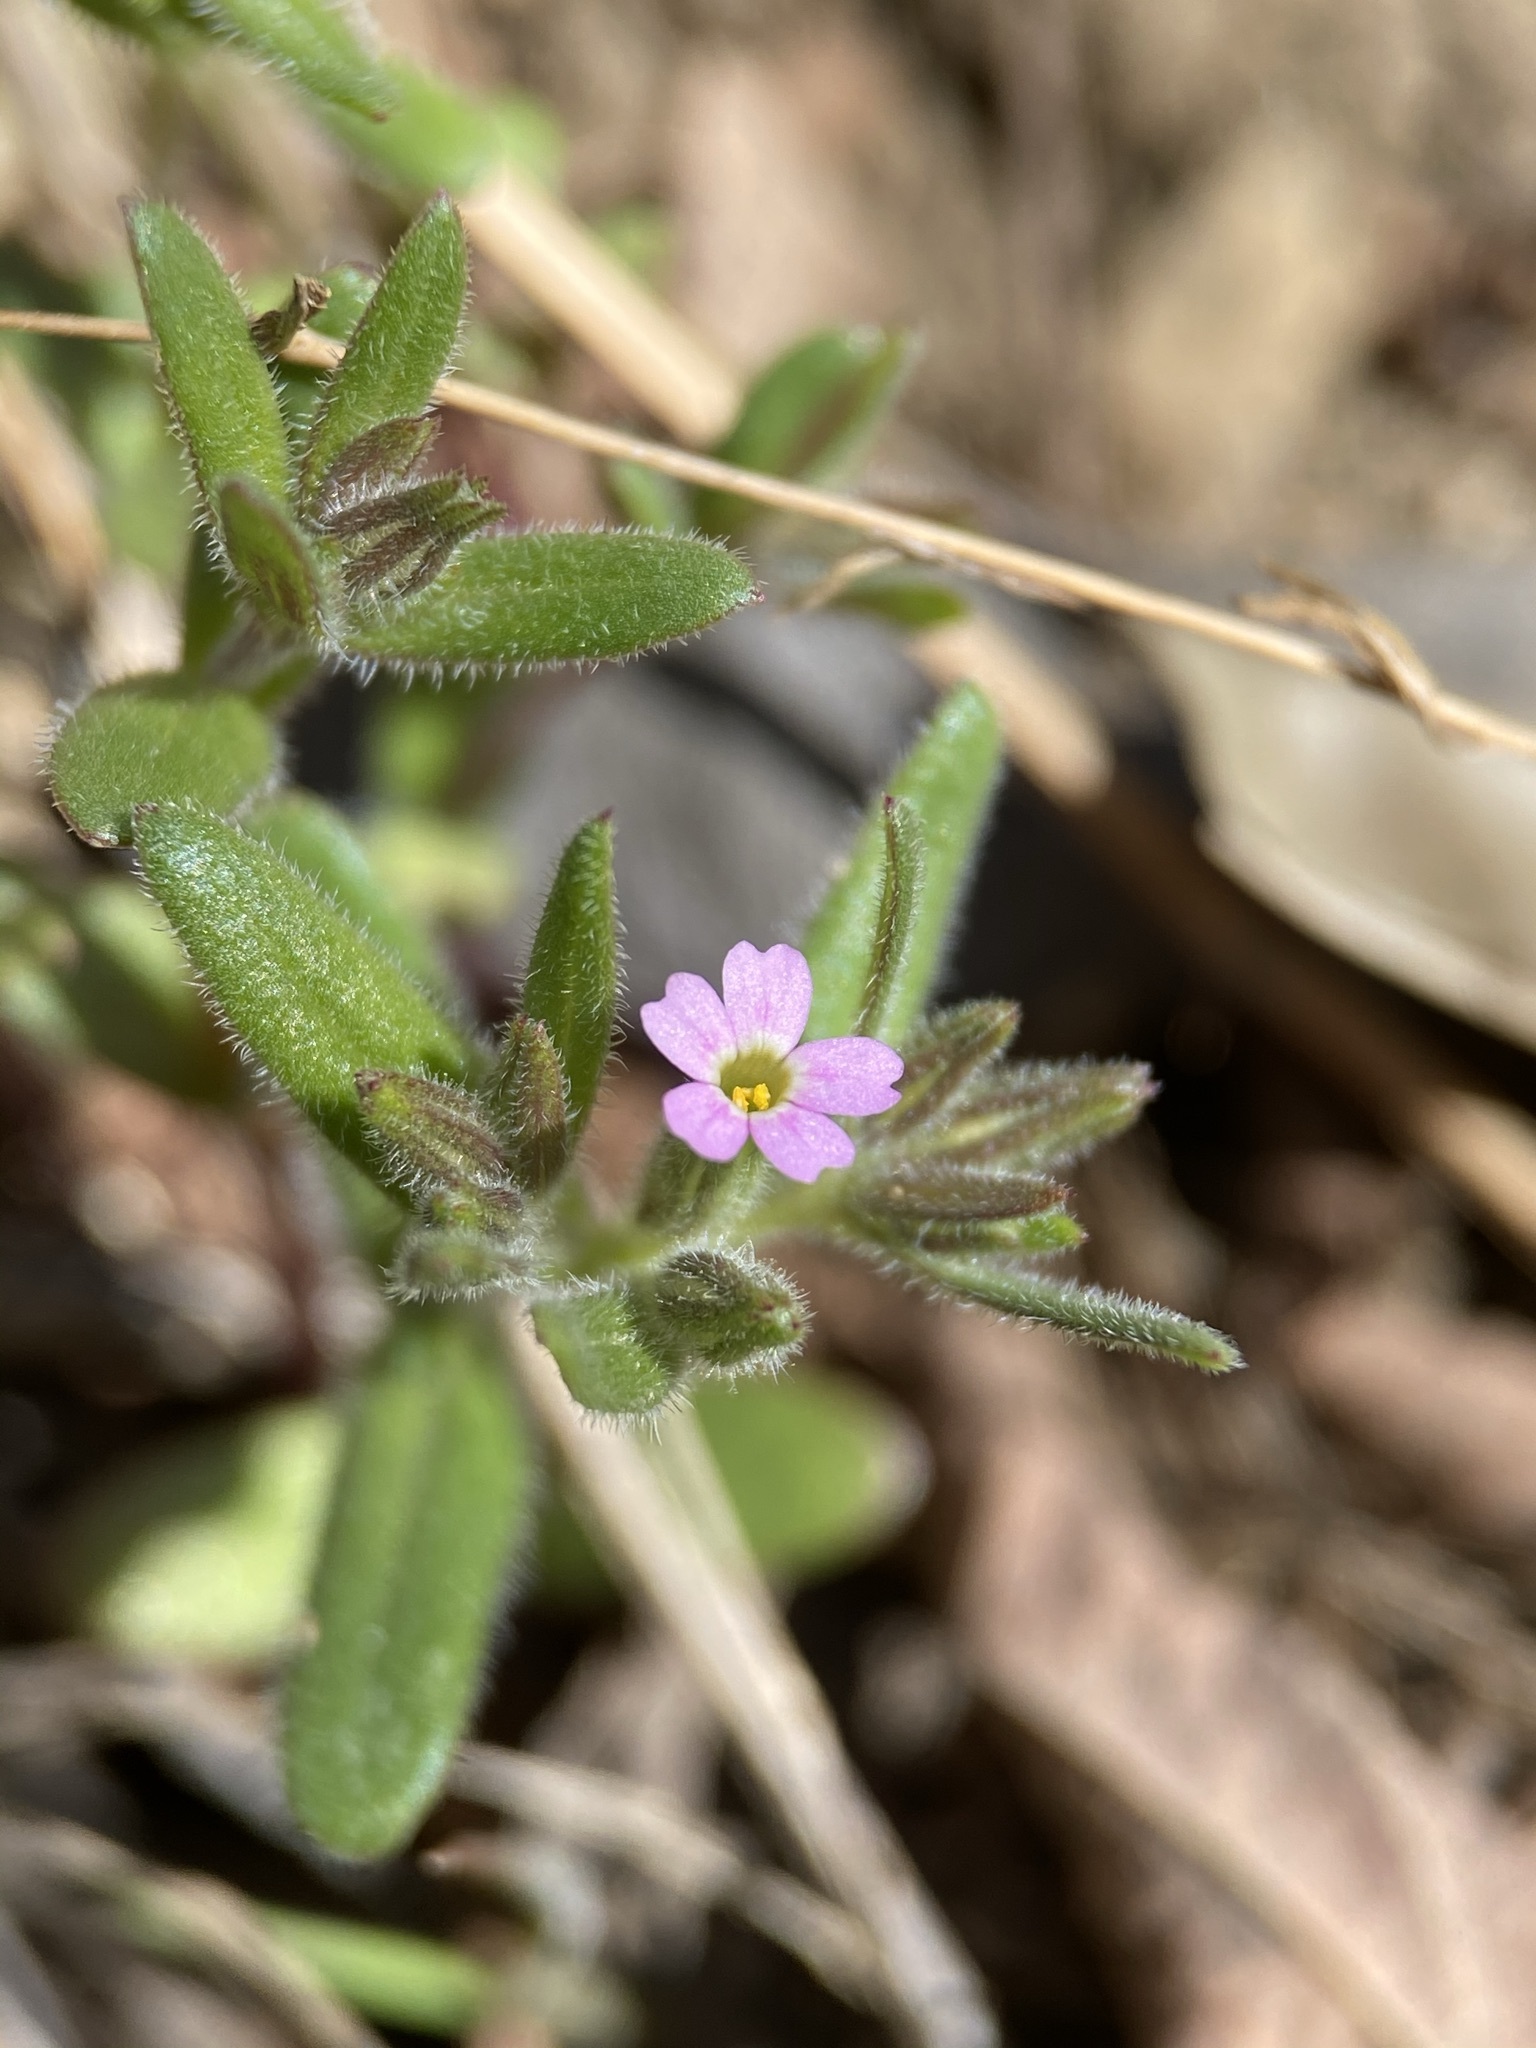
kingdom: Plantae
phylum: Tracheophyta
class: Magnoliopsida
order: Ericales
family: Polemoniaceae
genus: Phlox
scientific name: Phlox gracilis
